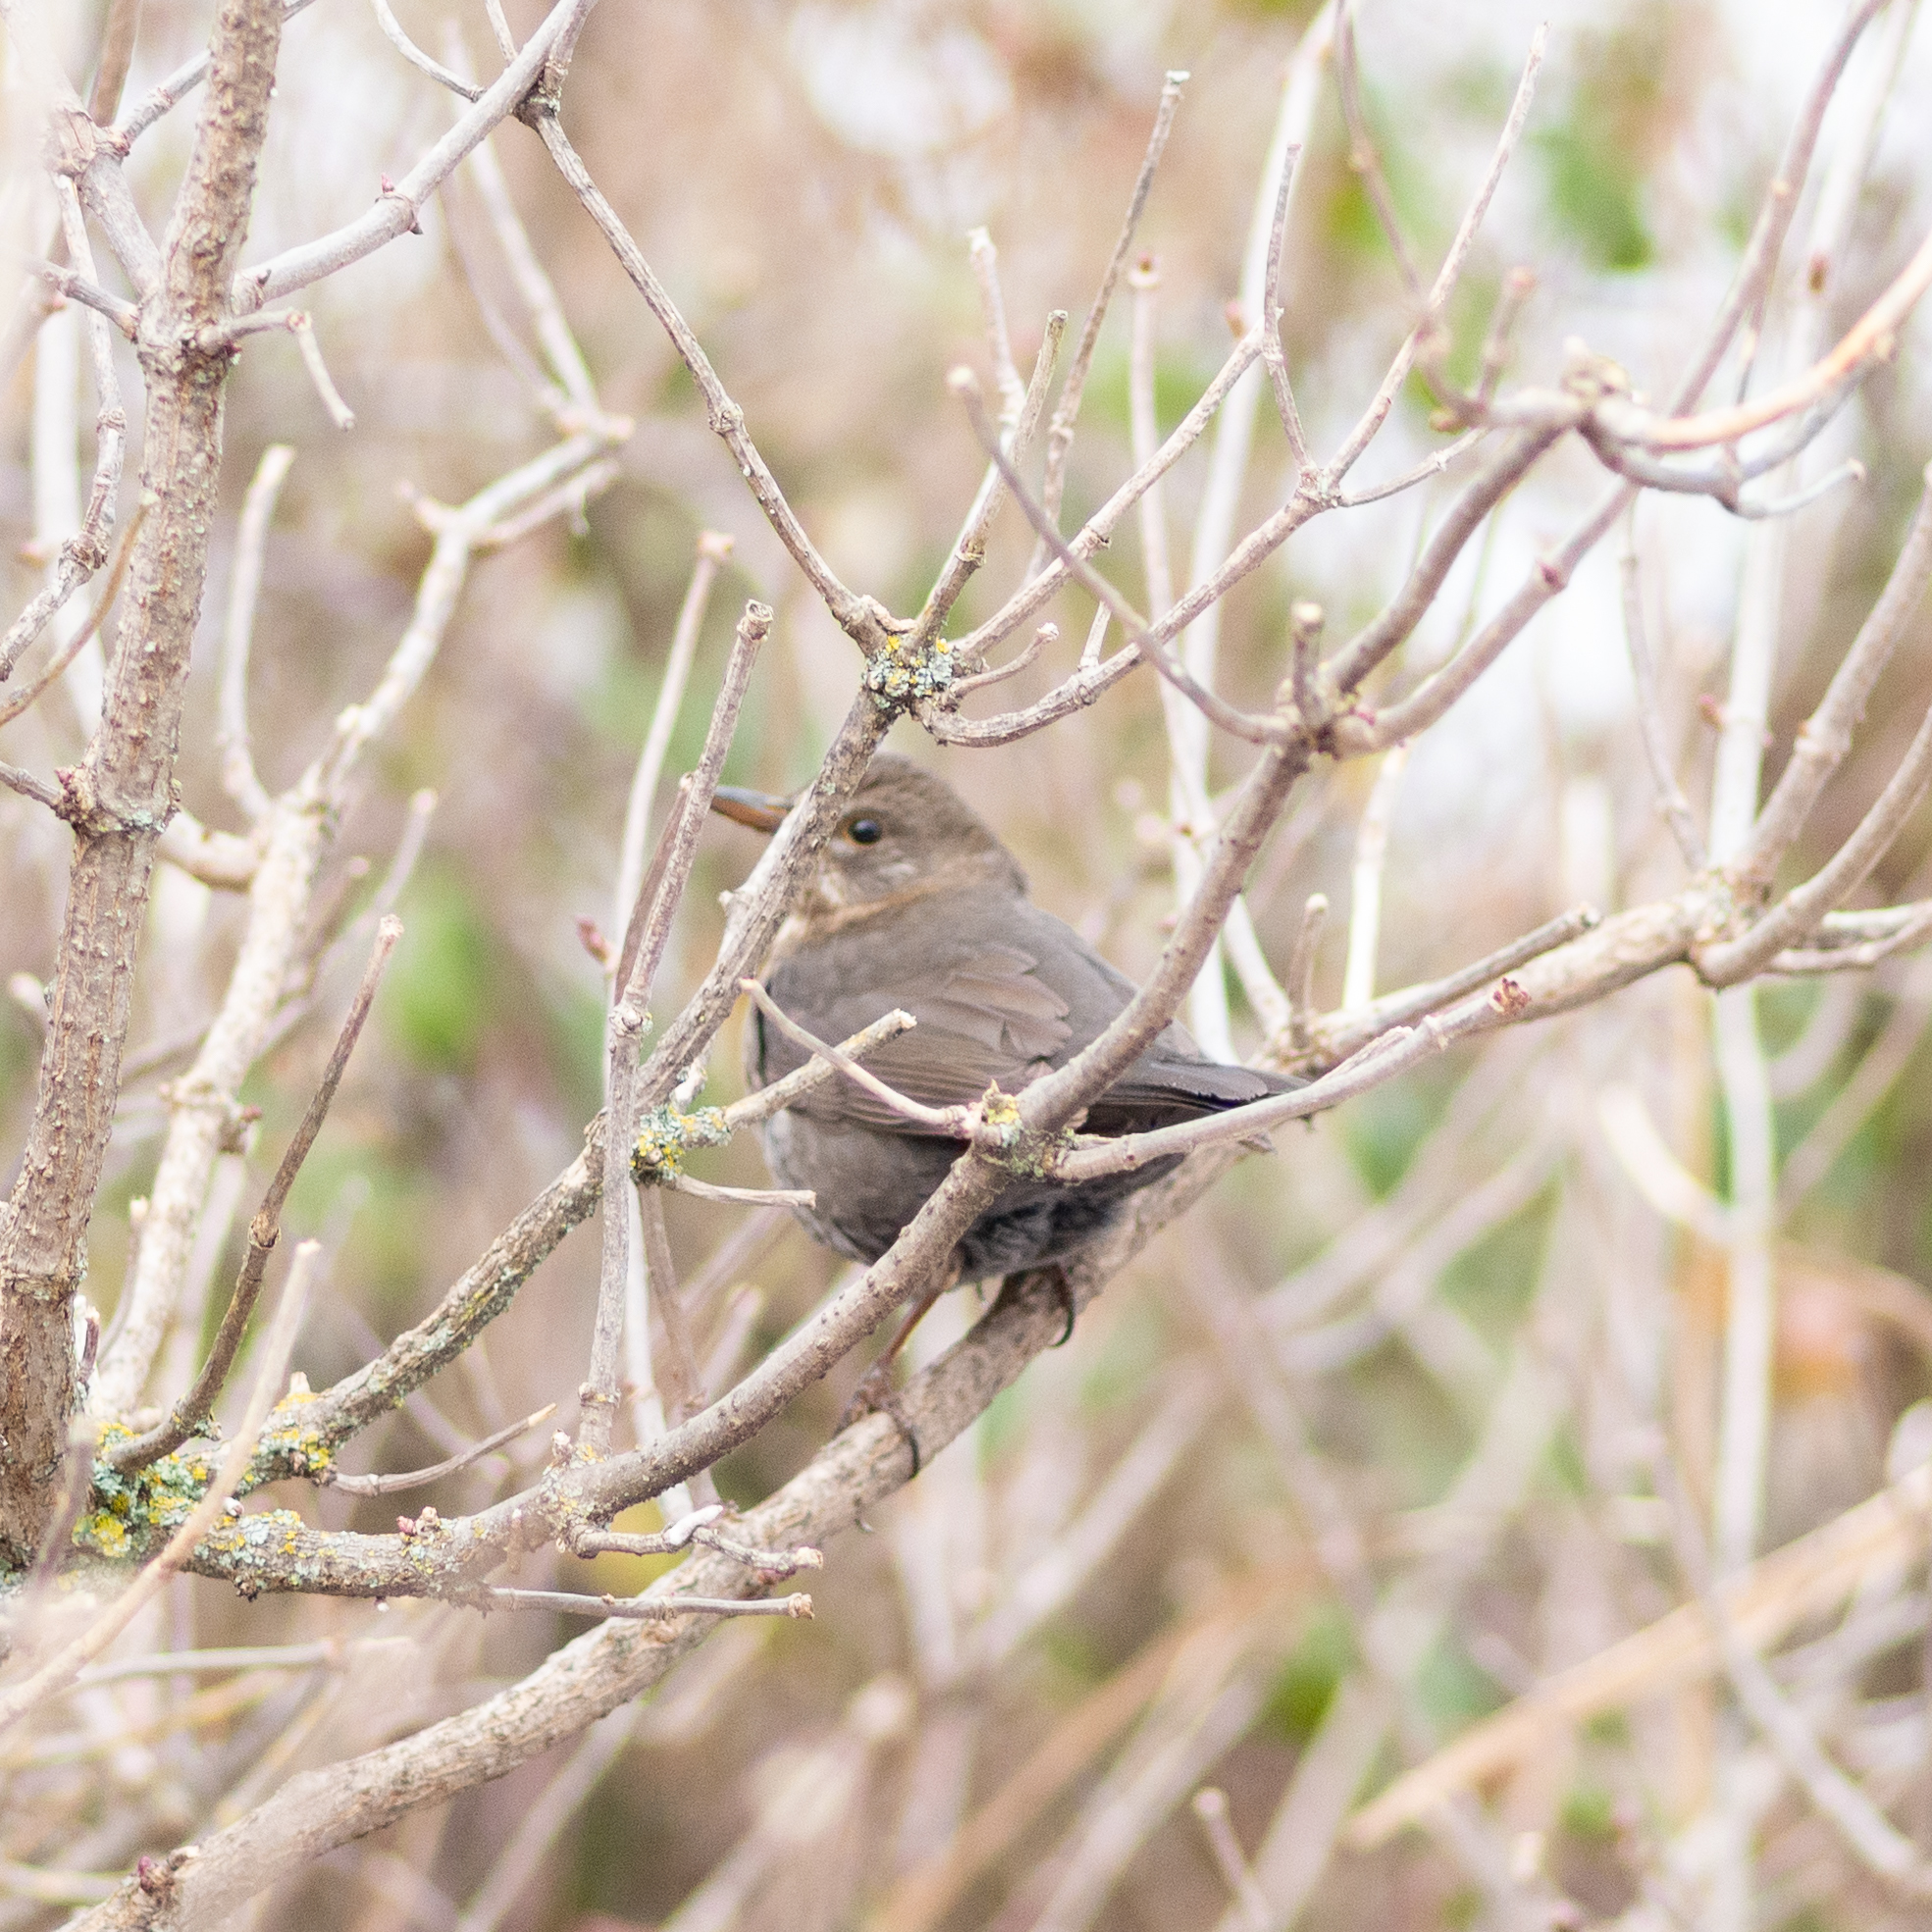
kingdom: Animalia
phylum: Chordata
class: Aves
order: Passeriformes
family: Turdidae
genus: Turdus
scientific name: Turdus merula
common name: Common blackbird
